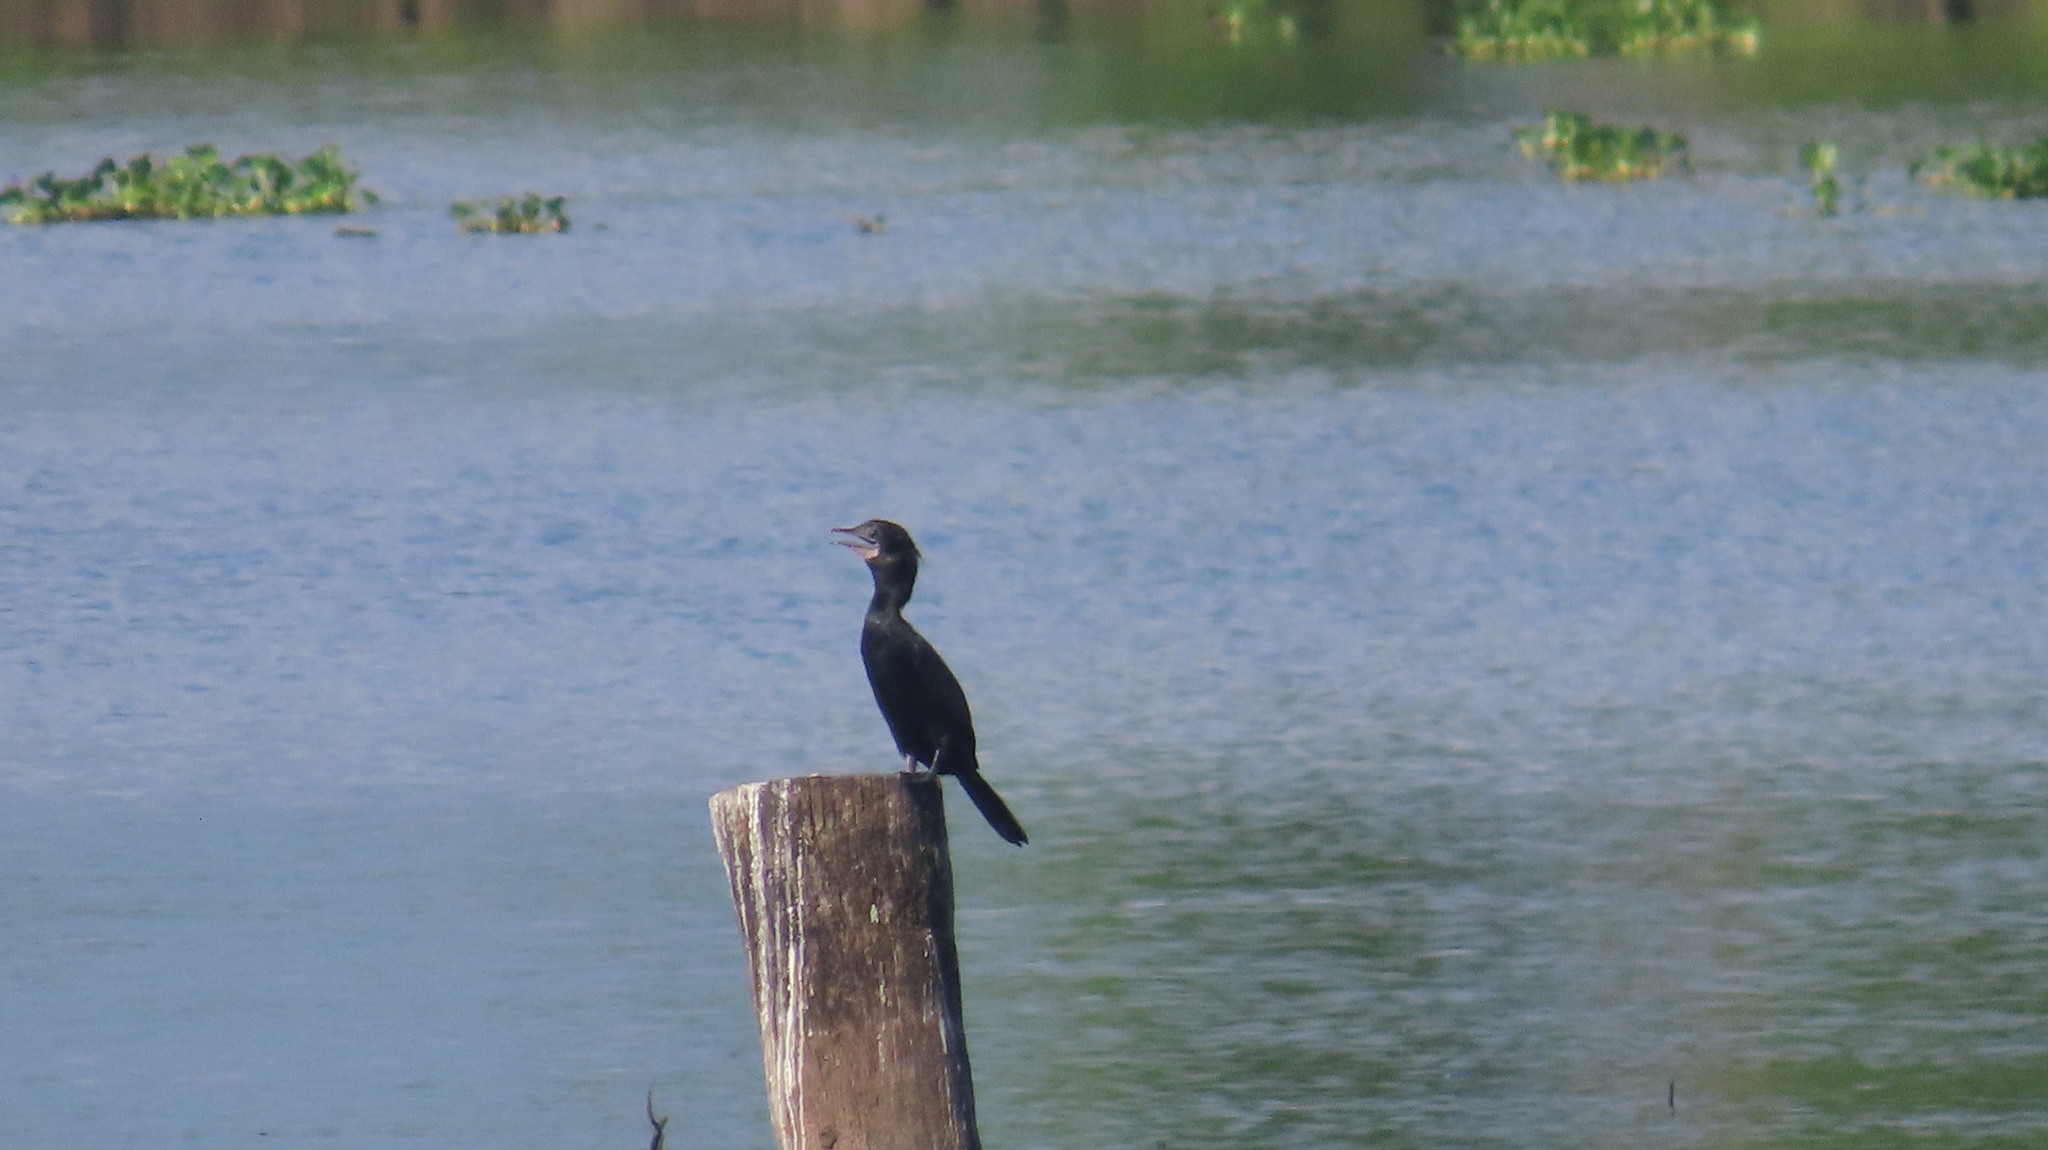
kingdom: Animalia
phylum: Chordata
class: Aves
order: Suliformes
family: Phalacrocoracidae
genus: Microcarbo
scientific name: Microcarbo niger
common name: Little cormorant
